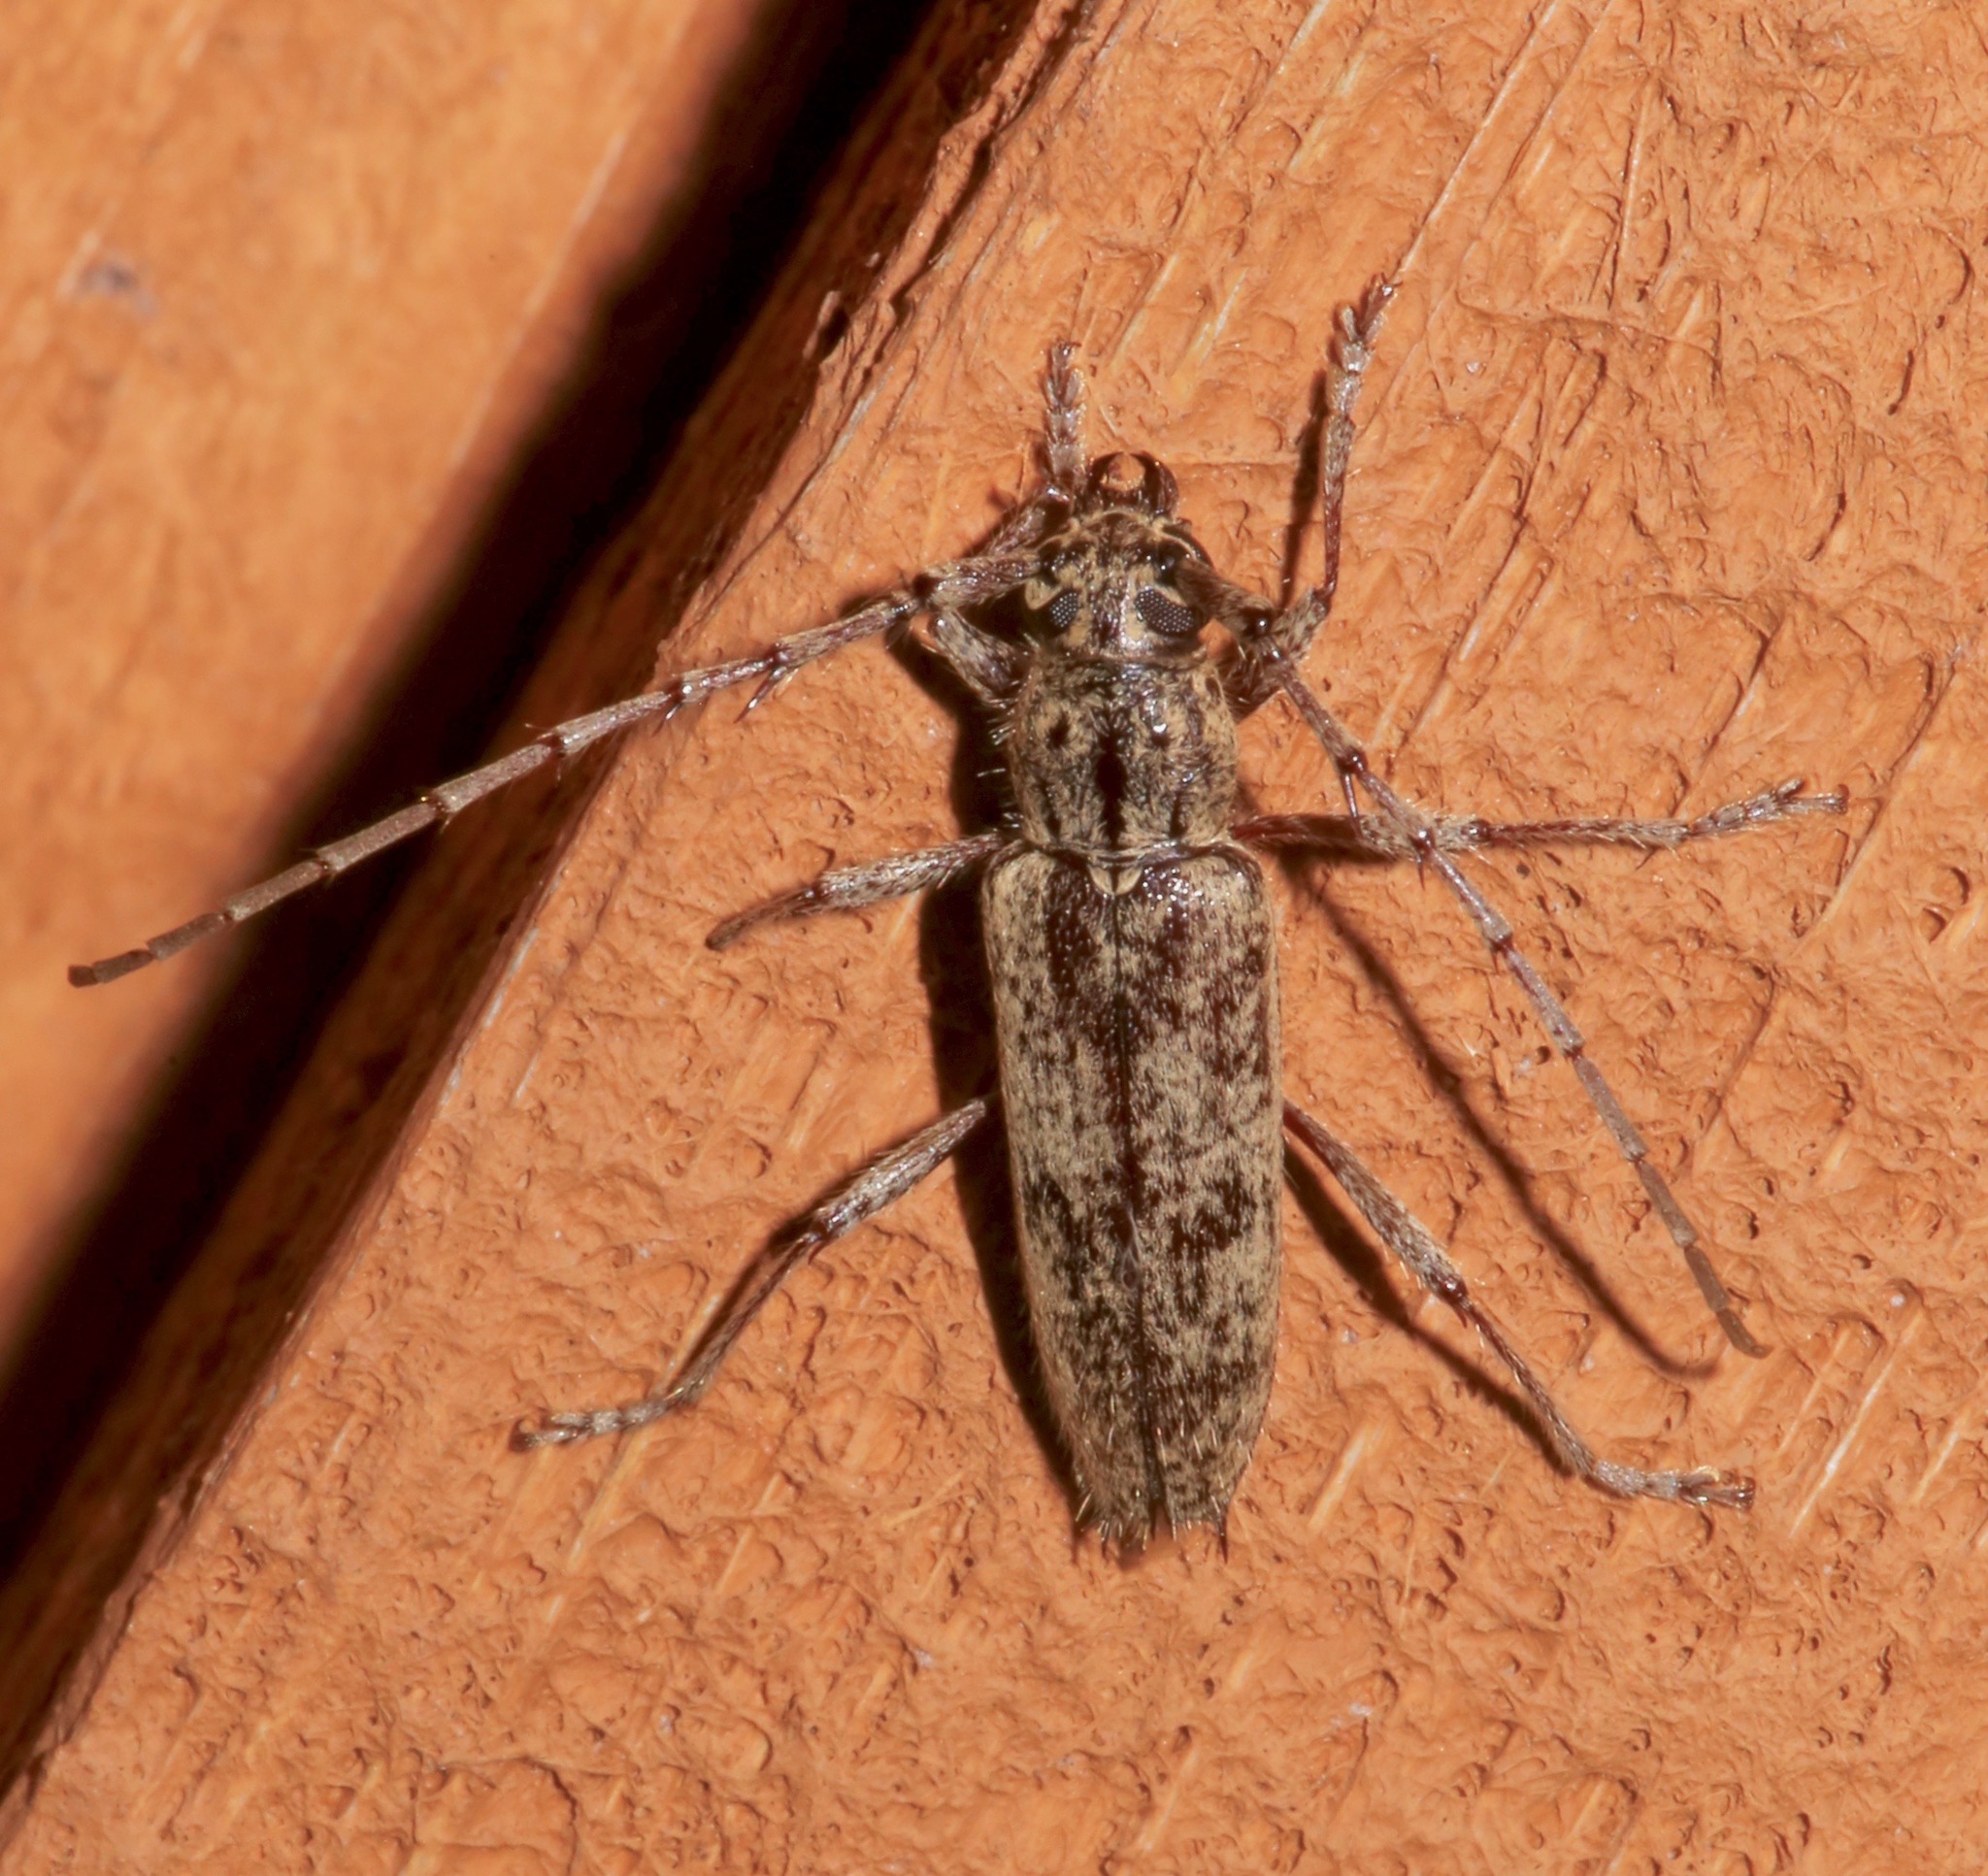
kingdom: Animalia
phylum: Arthropoda
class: Insecta
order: Coleoptera
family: Cerambycidae
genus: Elaphidion
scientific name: Elaphidion mucronatum
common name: Spined oak borer
